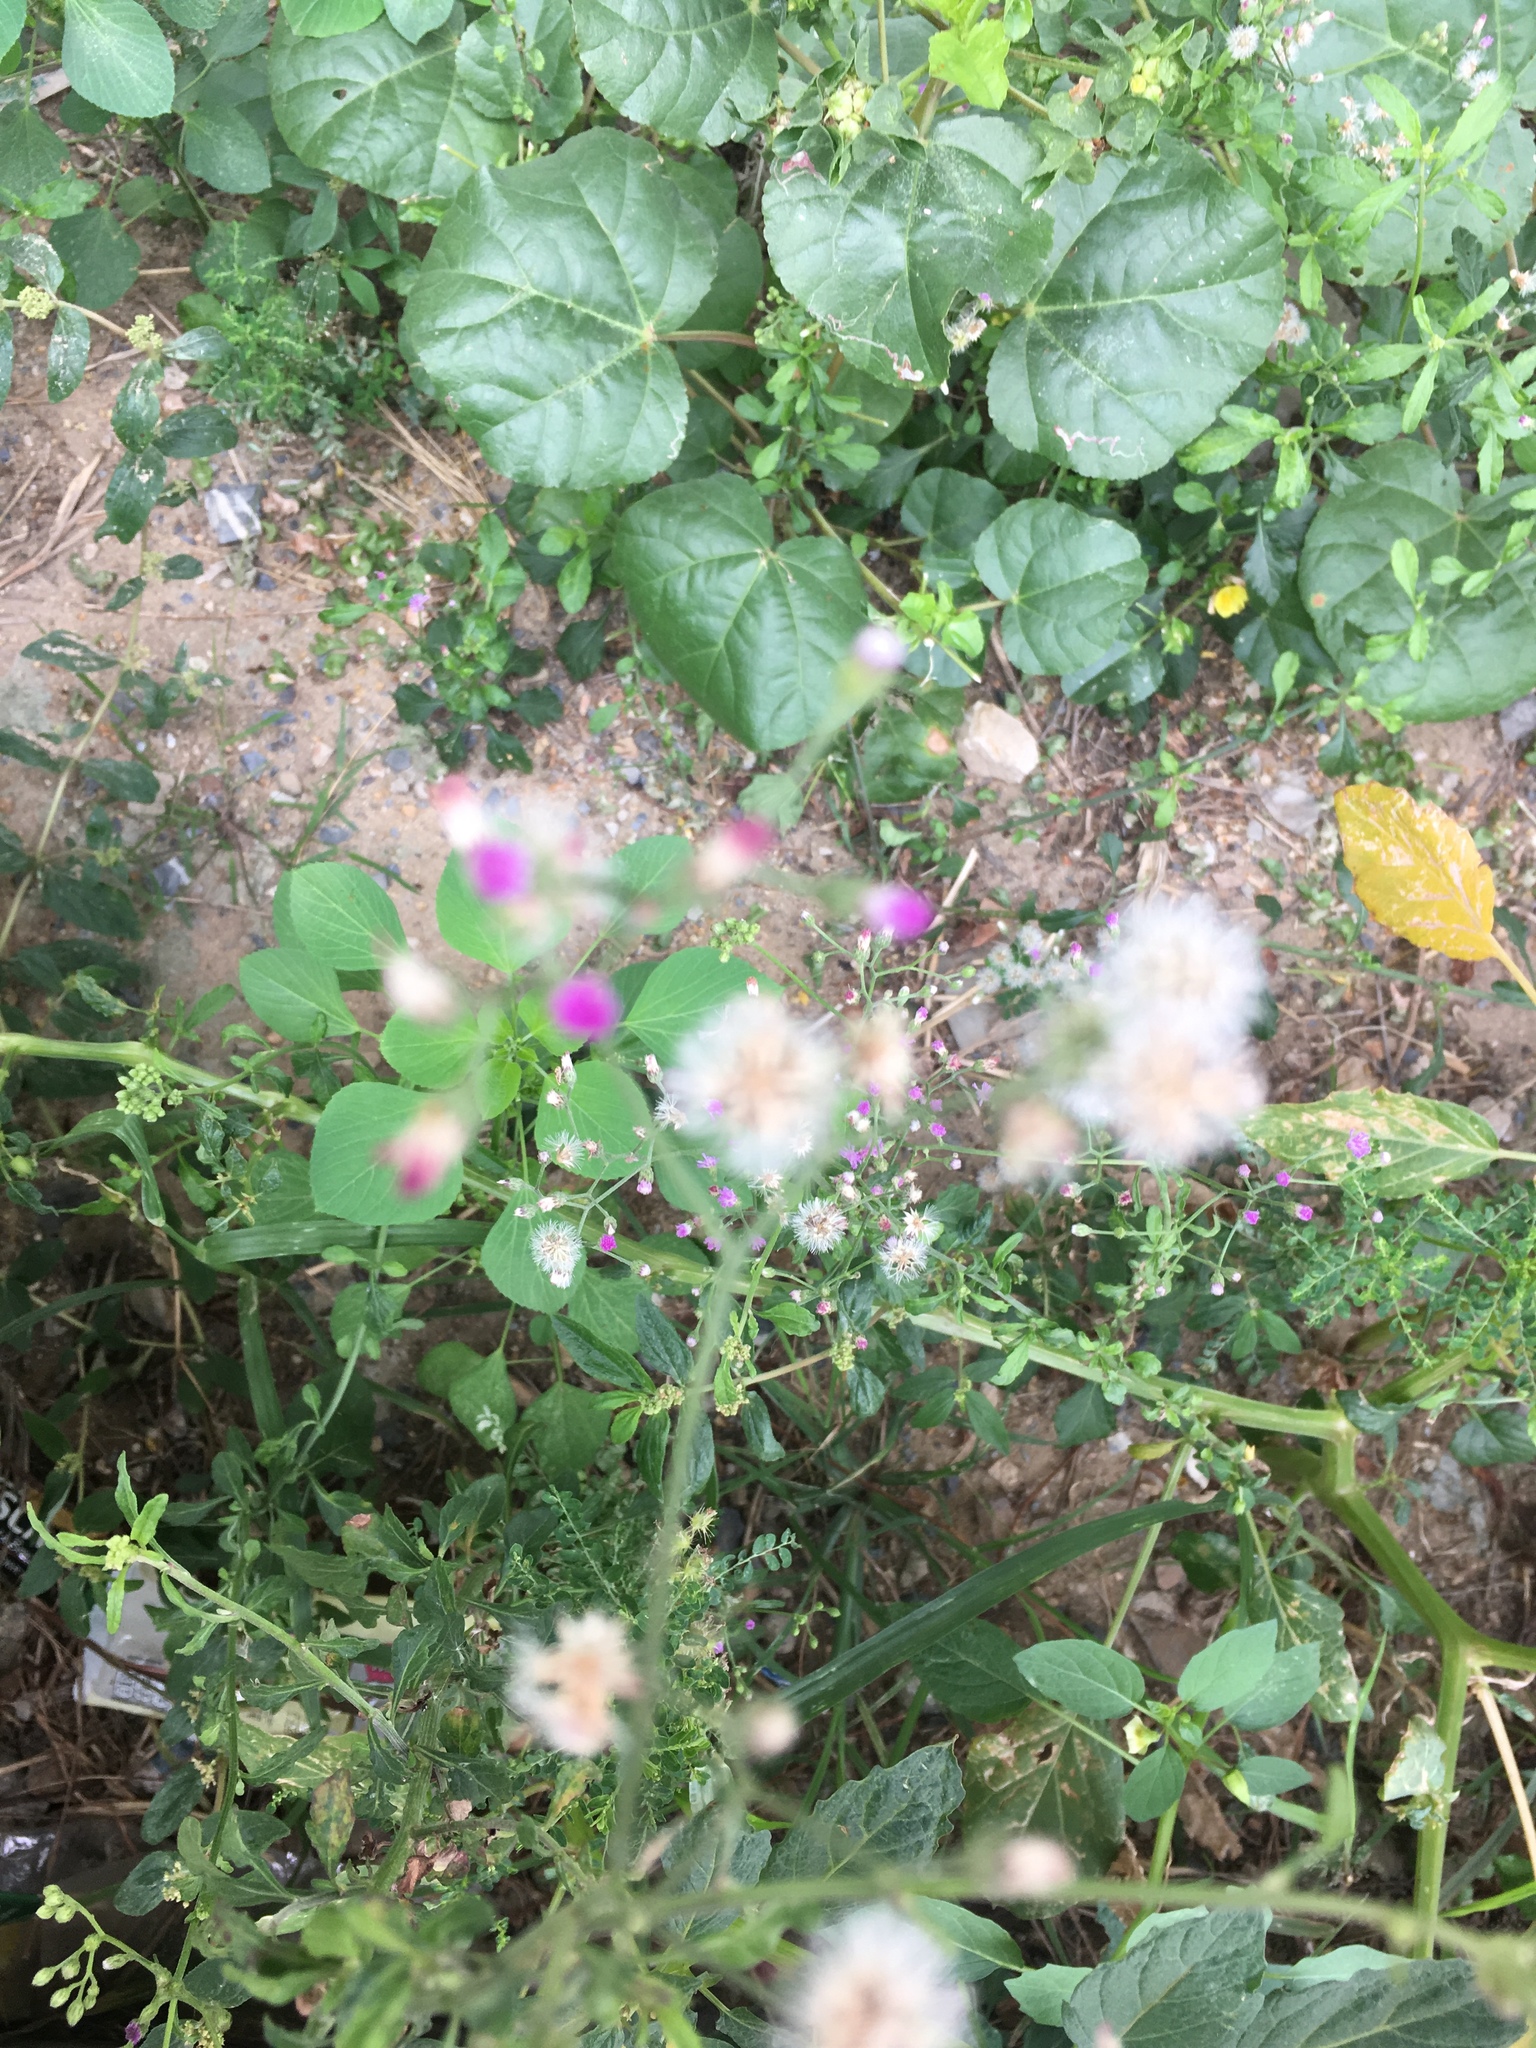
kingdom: Plantae
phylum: Tracheophyta
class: Magnoliopsida
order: Asterales
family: Asteraceae
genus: Cyanthillium
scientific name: Cyanthillium cinereum
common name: Little ironweed
